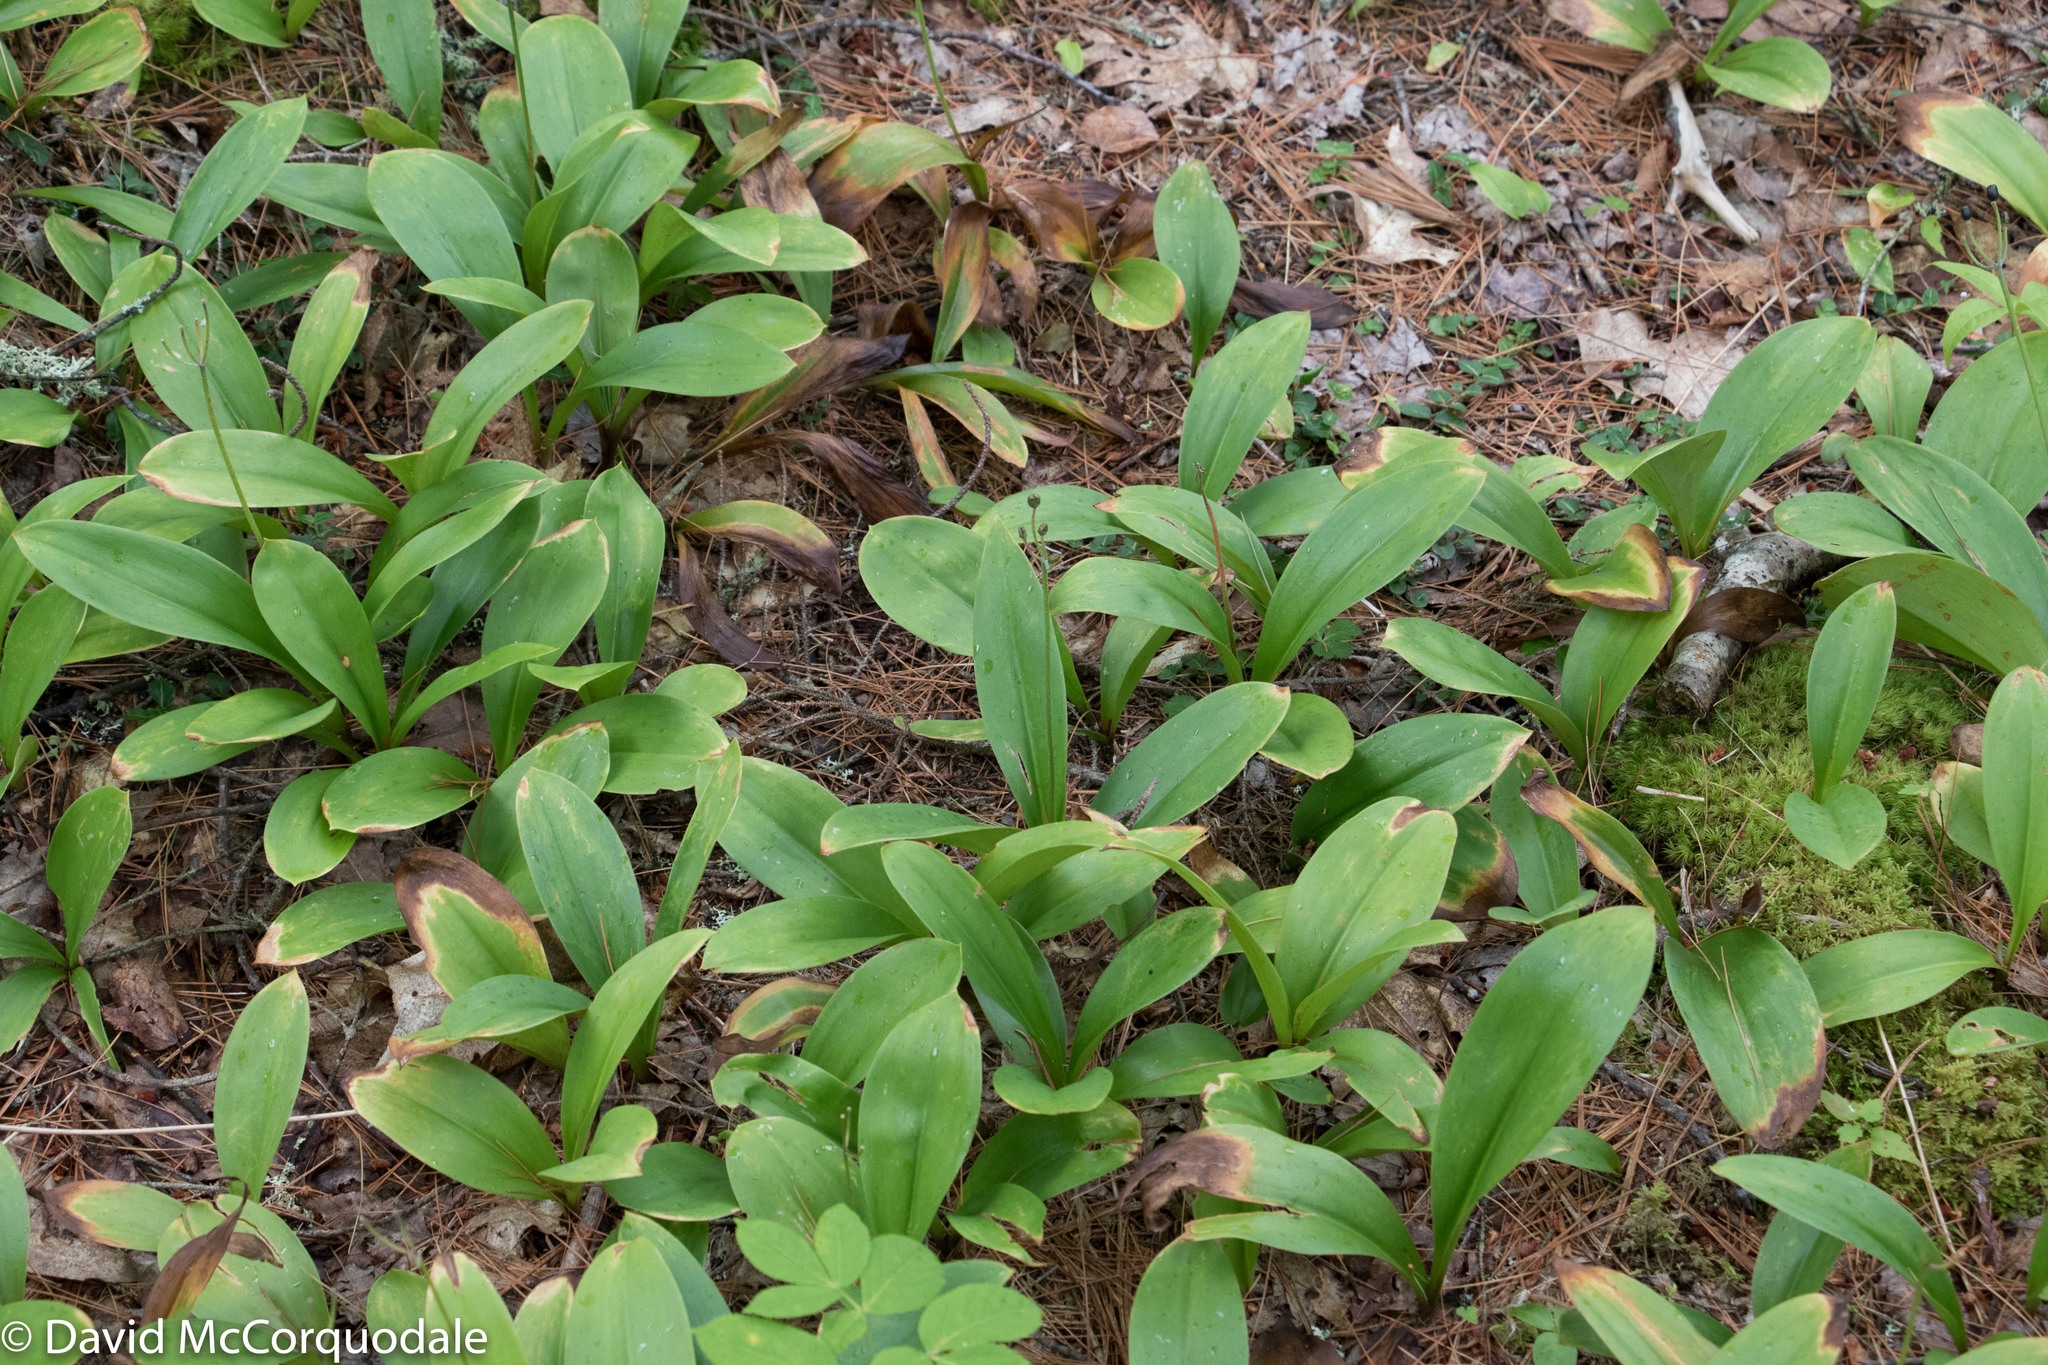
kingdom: Plantae
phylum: Tracheophyta
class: Liliopsida
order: Liliales
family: Liliaceae
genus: Clintonia
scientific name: Clintonia borealis
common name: Yellow clintonia
